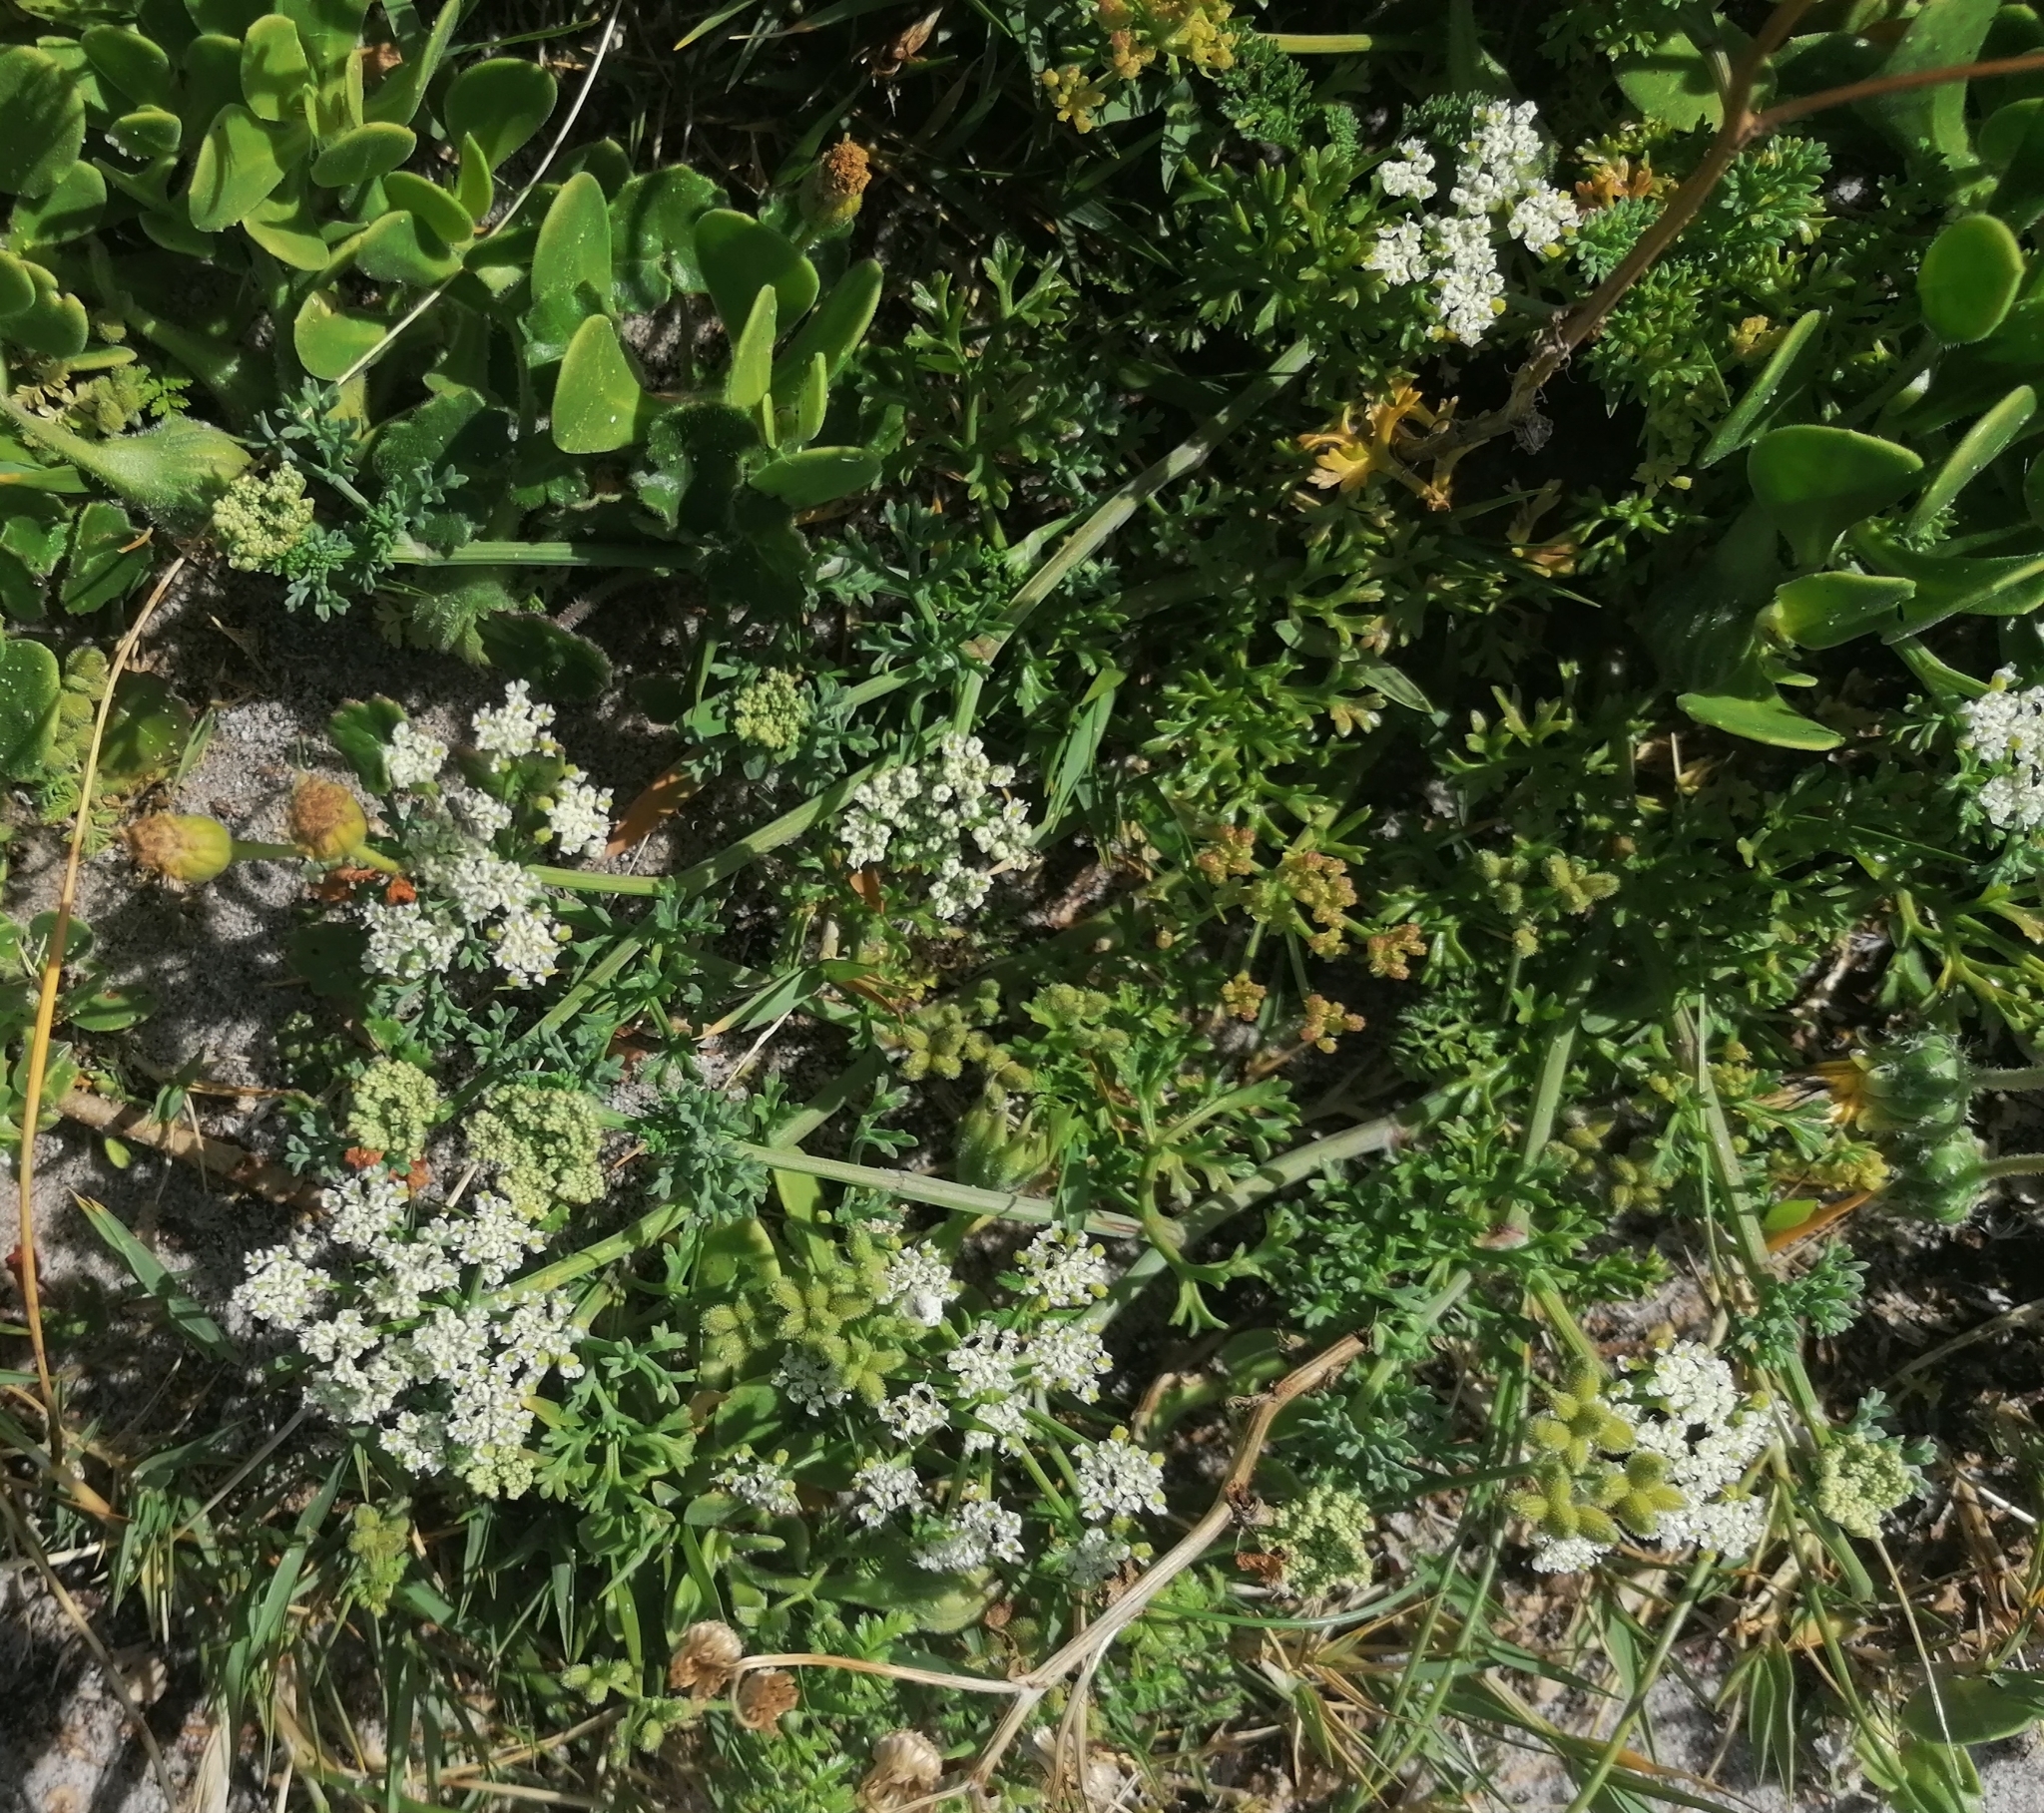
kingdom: Plantae
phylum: Tracheophyta
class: Magnoliopsida
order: Apiales
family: Apiaceae
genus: Dasispermum
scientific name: Dasispermum suffruticosum
